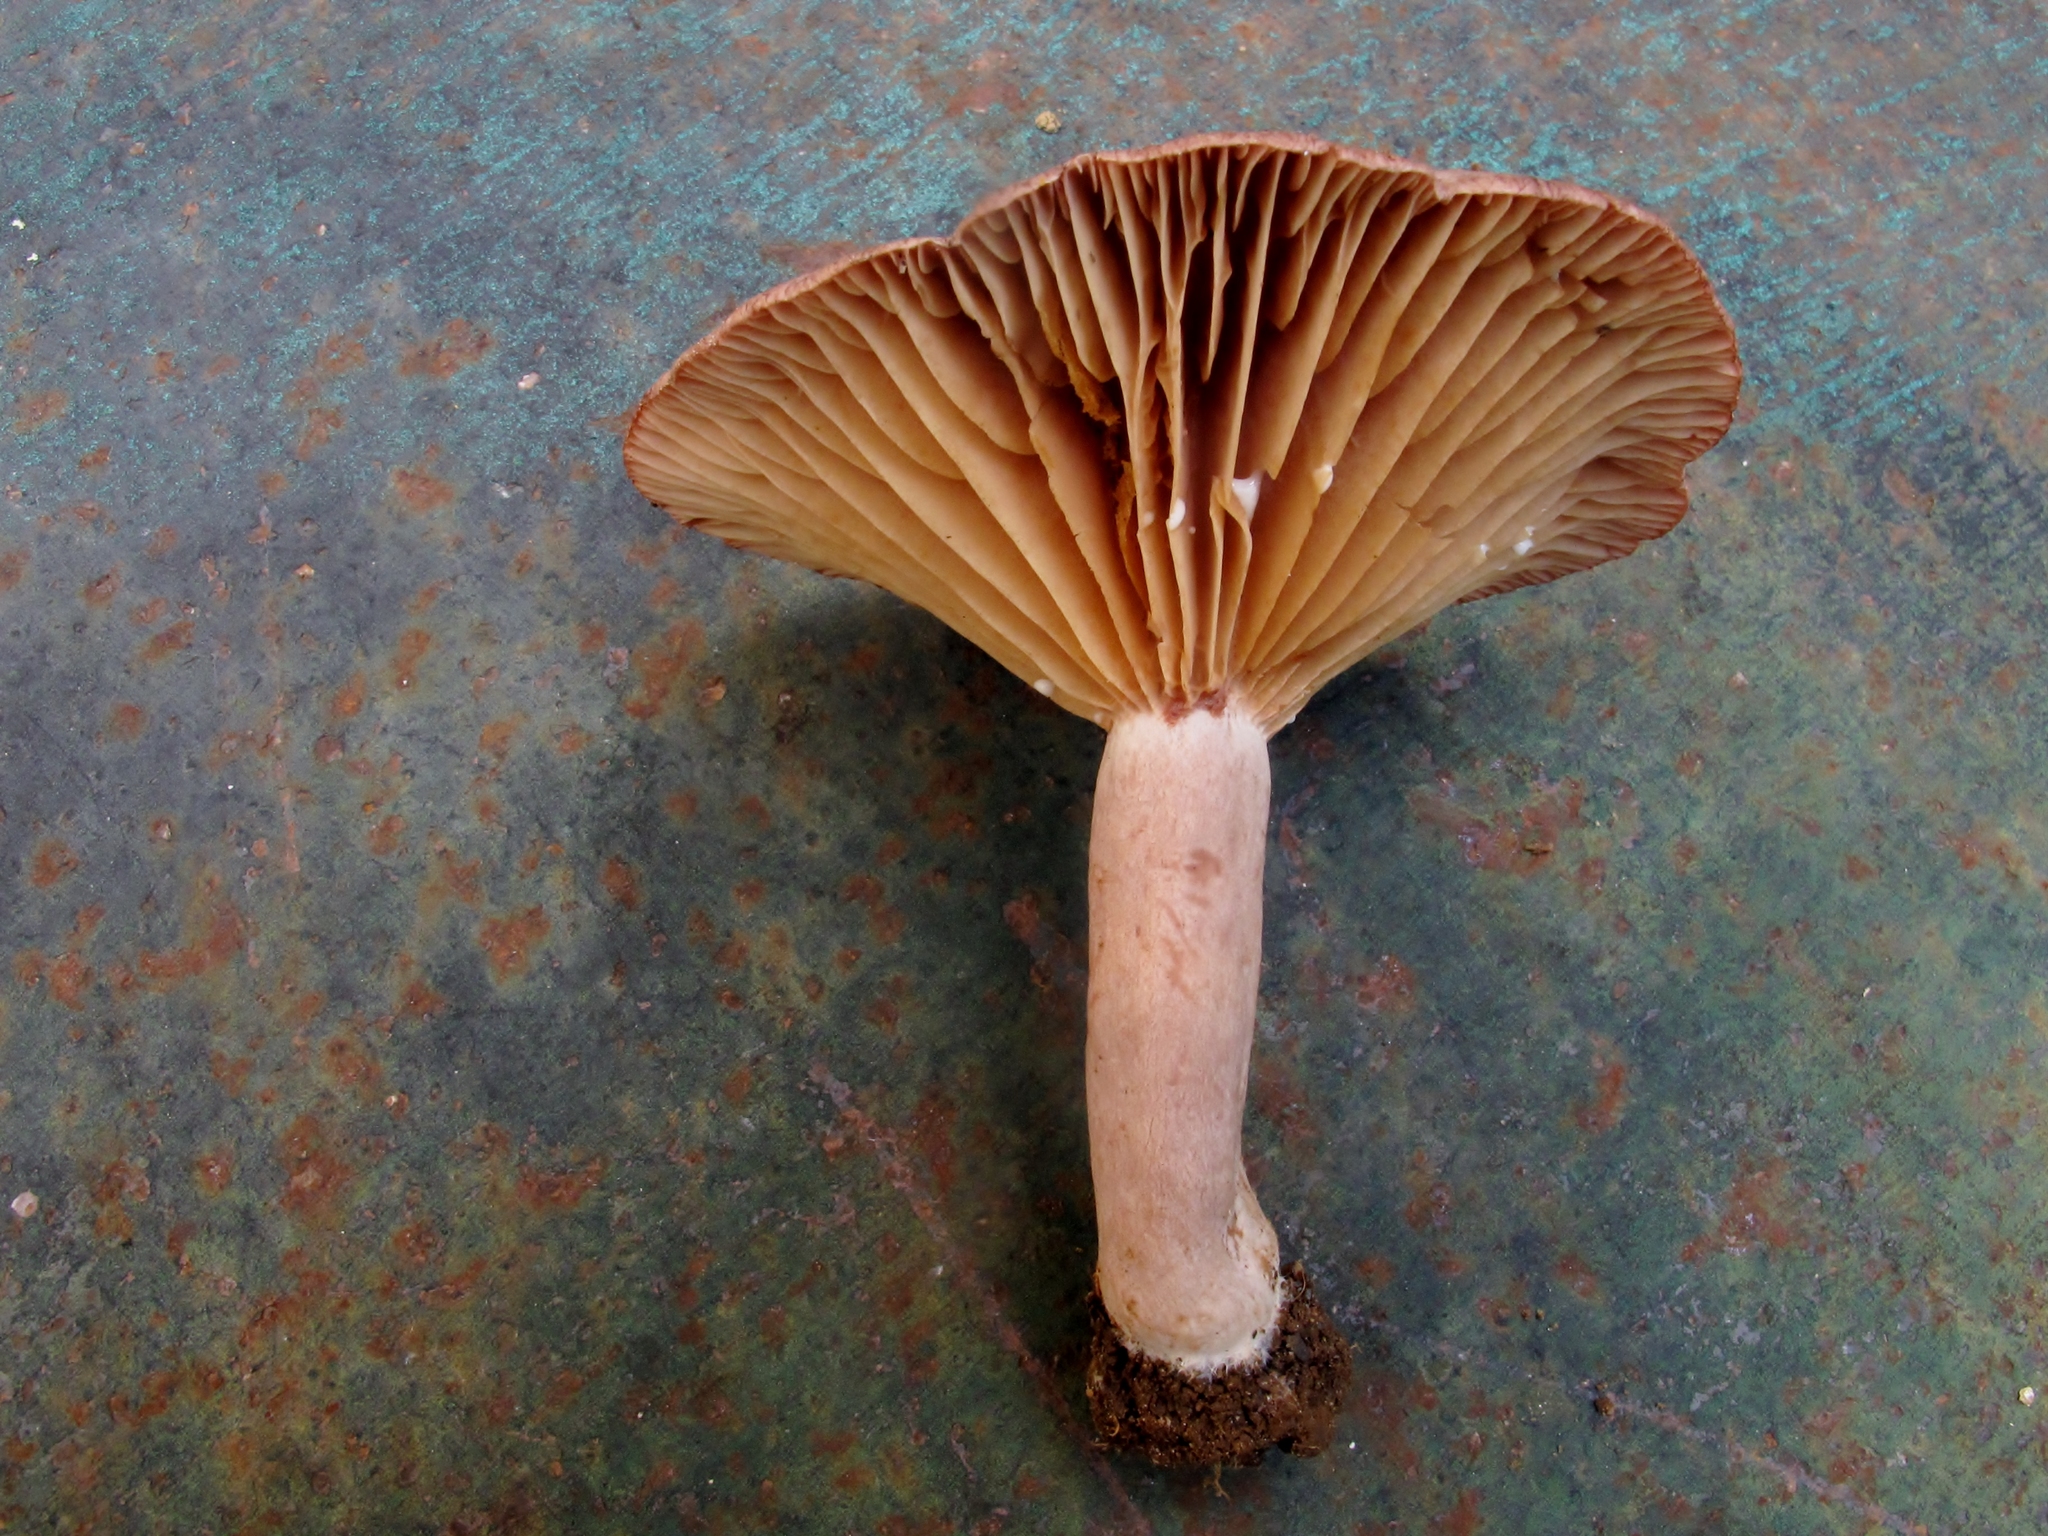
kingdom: Fungi
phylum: Basidiomycota
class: Agaricomycetes
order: Russulales
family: Russulaceae
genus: Lactarius
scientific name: Lactarius pyrogalus
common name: Fiery milkcap
